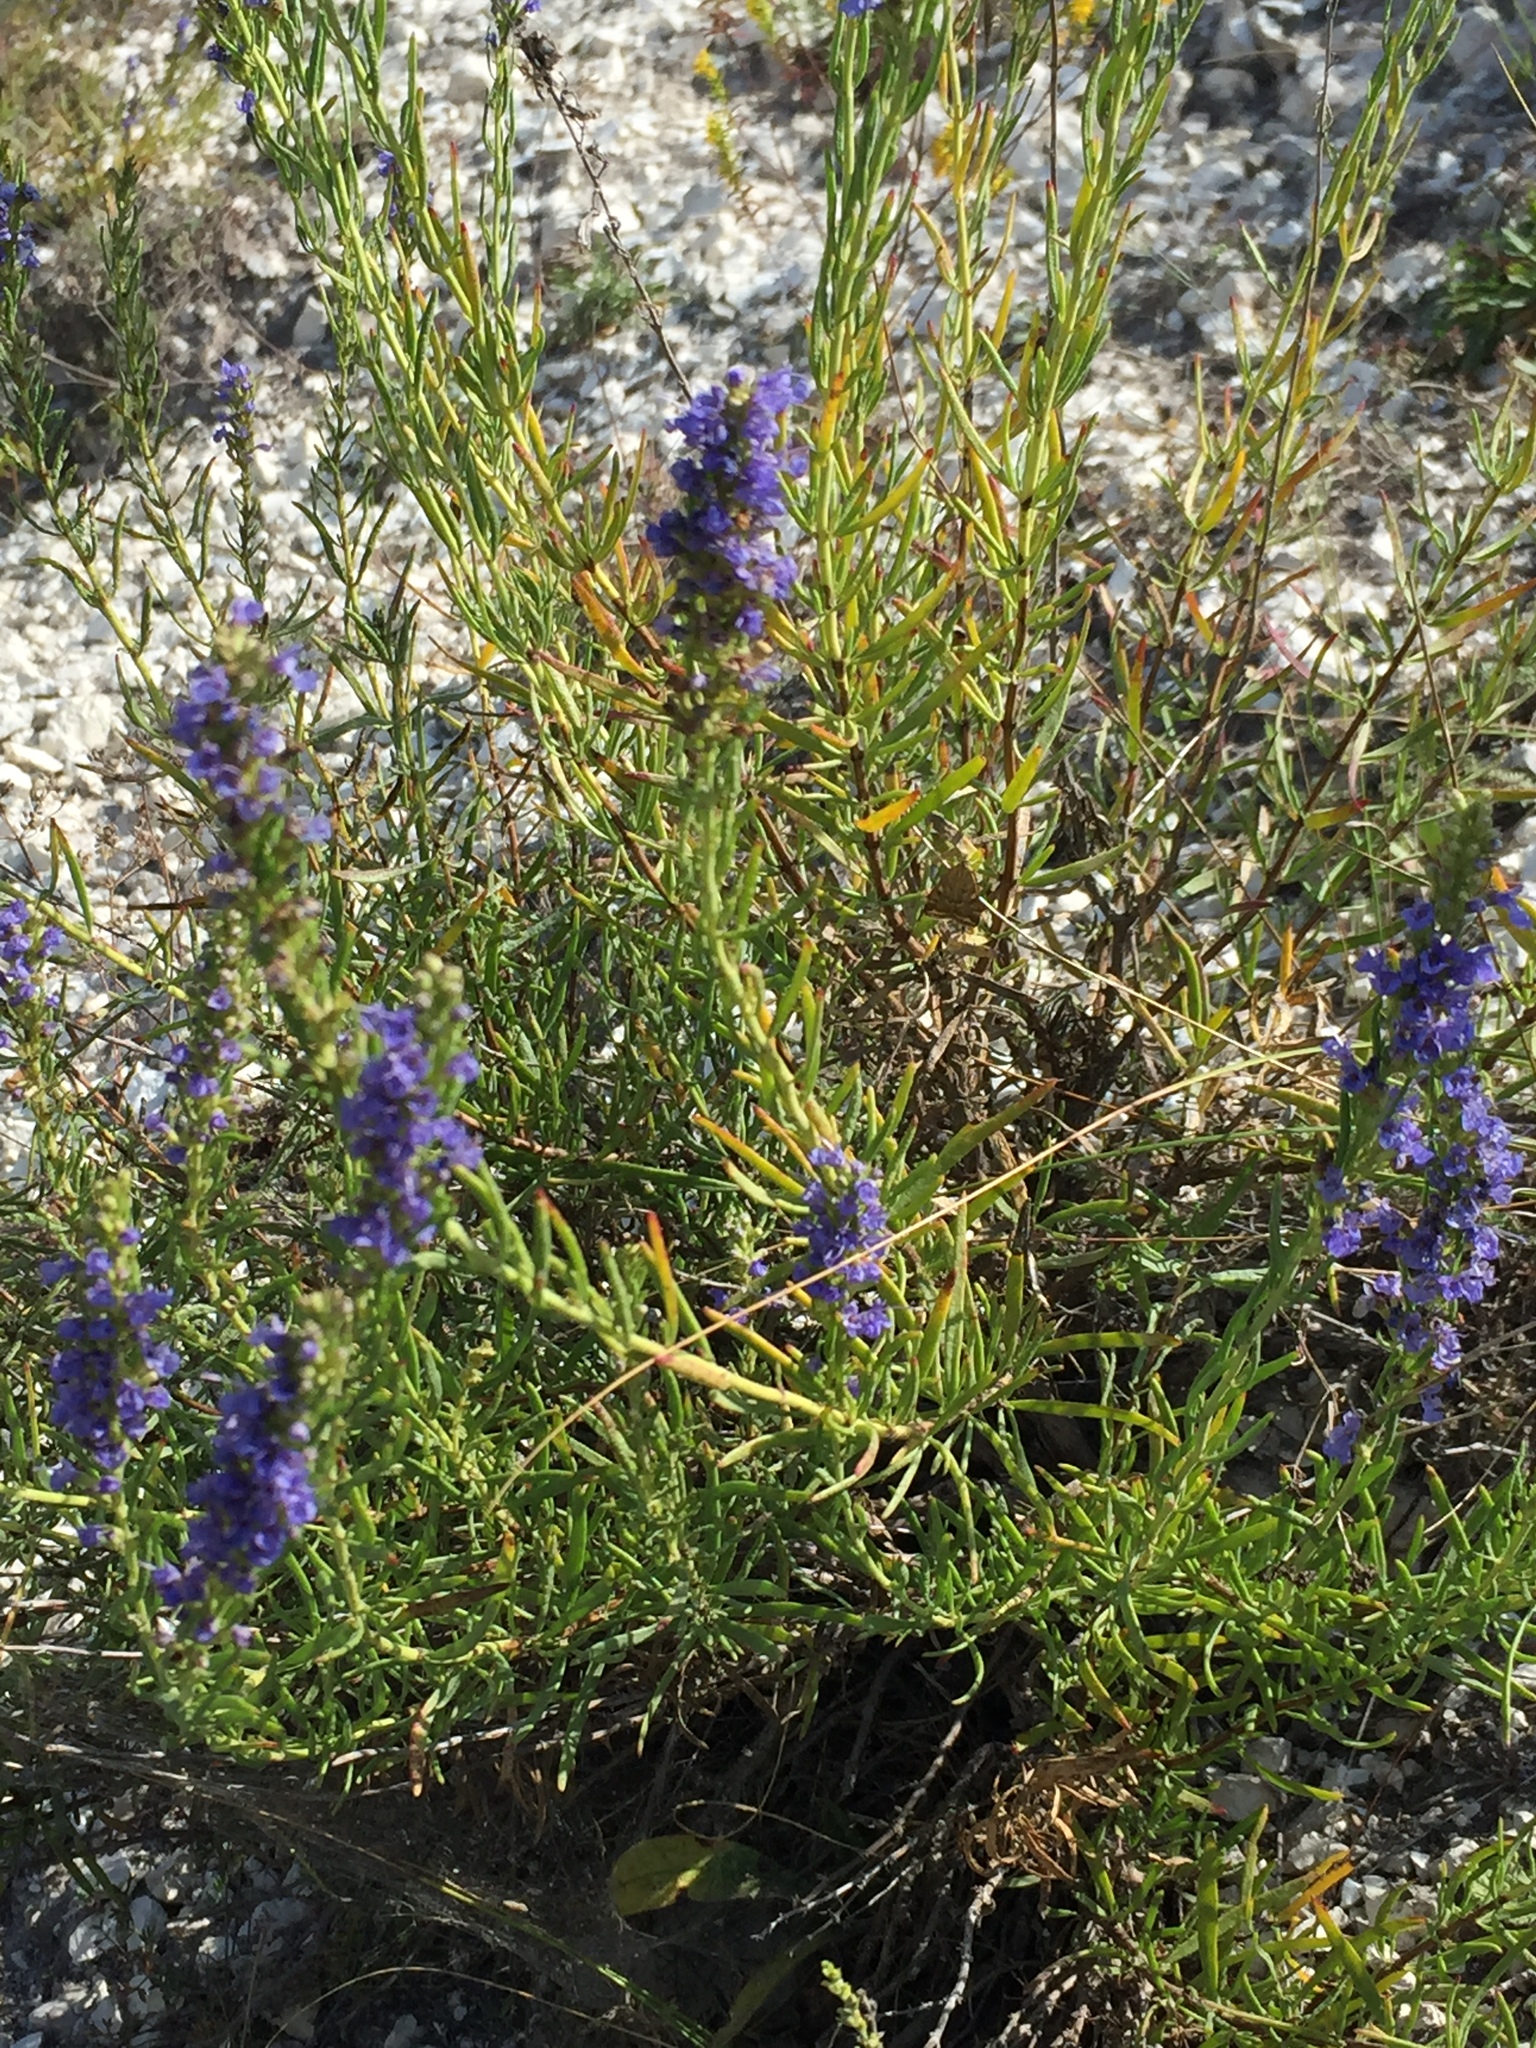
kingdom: Plantae
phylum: Tracheophyta
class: Magnoliopsida
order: Lamiales
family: Lamiaceae
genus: Hyssopus
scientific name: Hyssopus officinalis
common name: Hyssop
